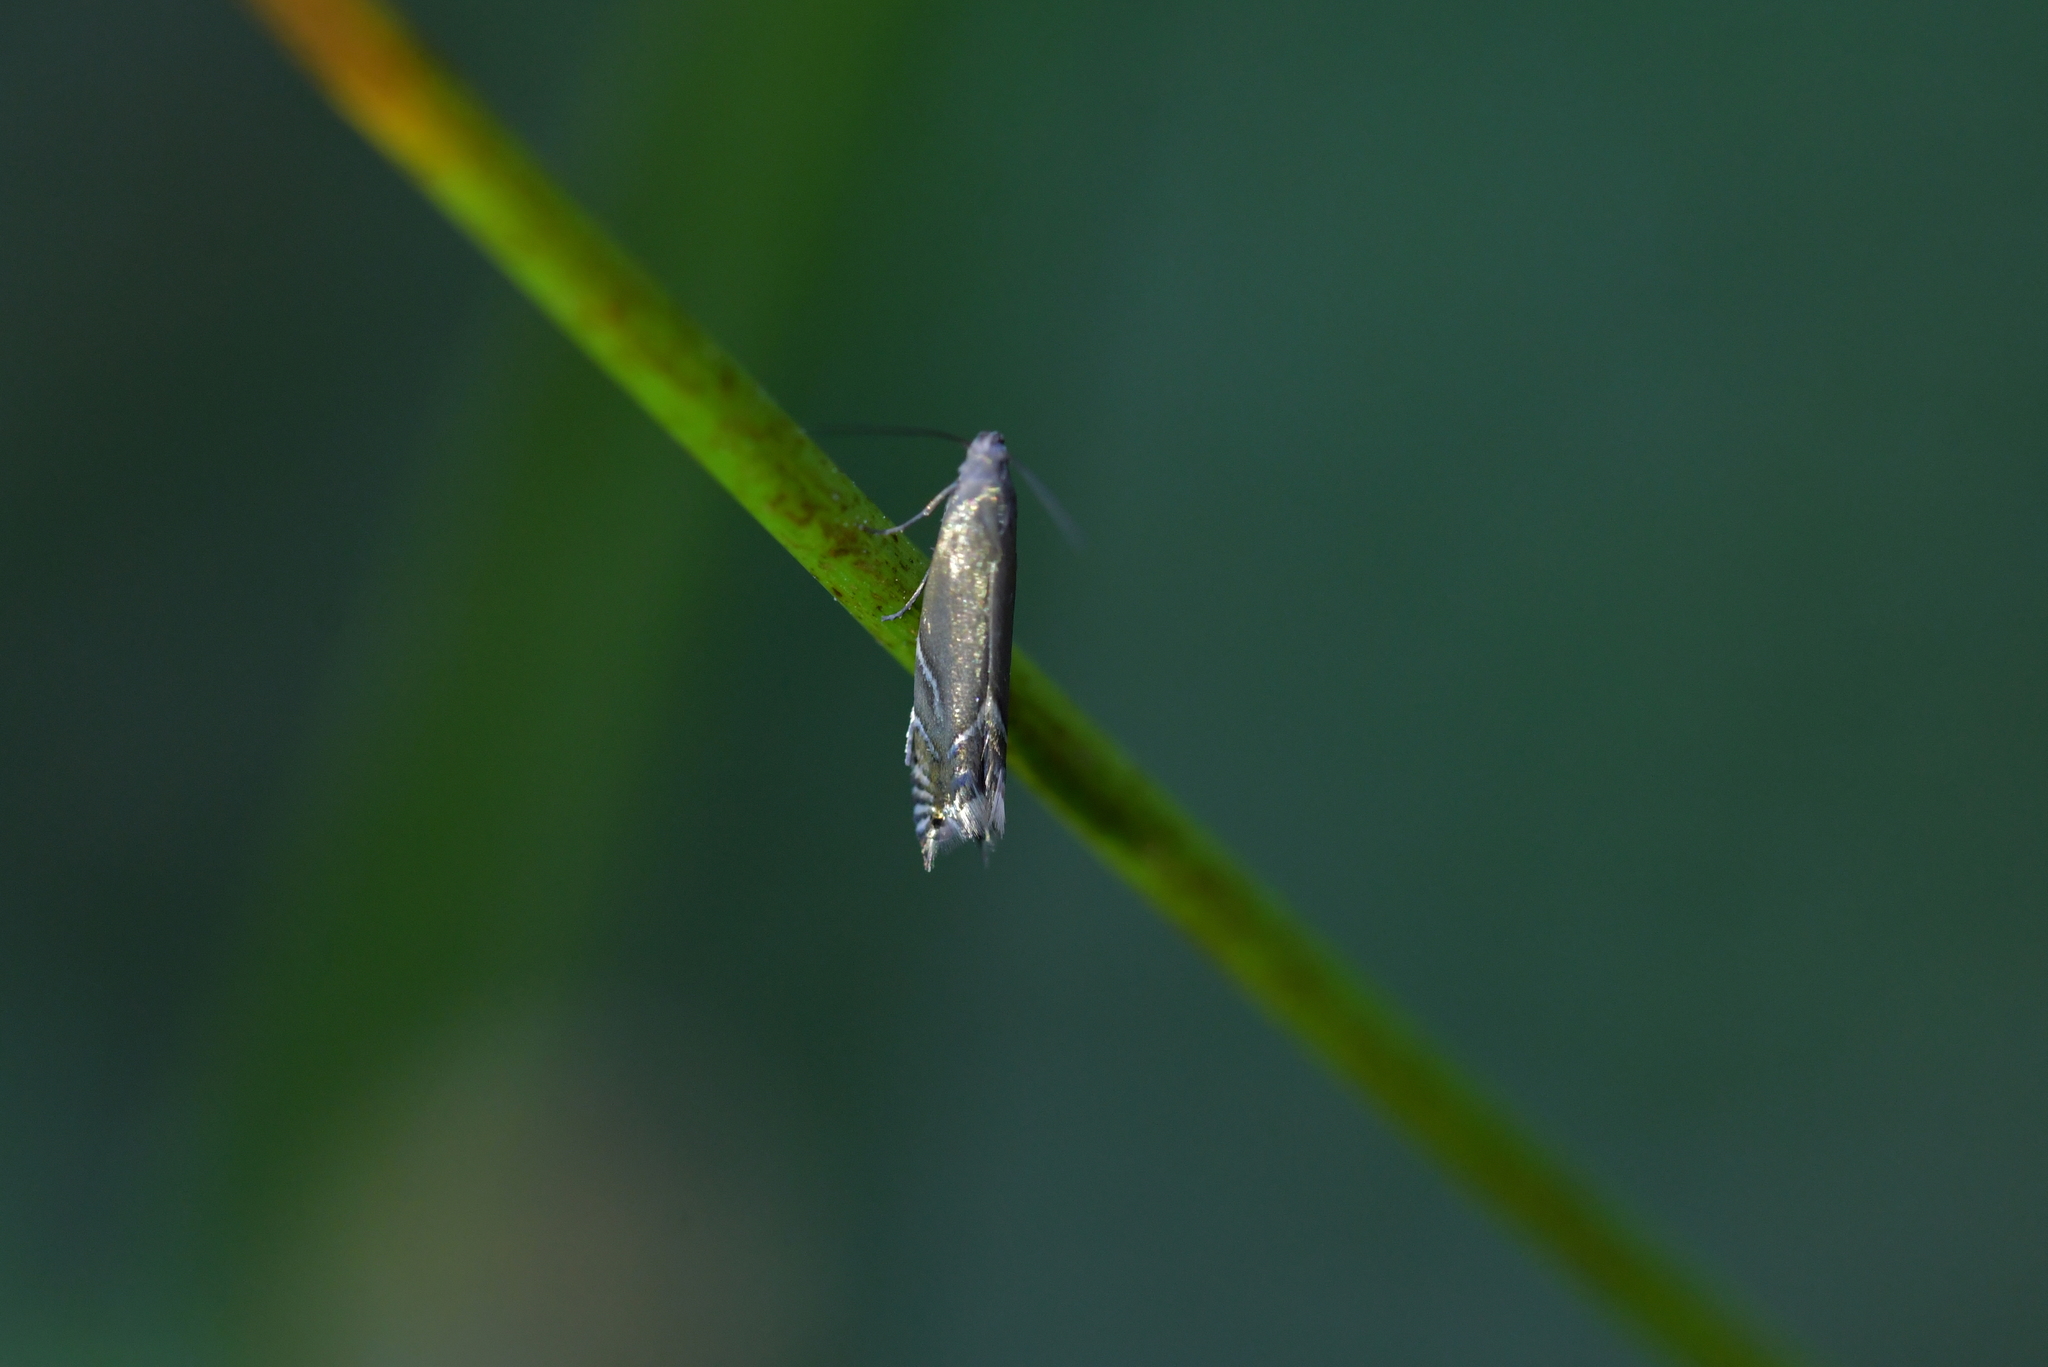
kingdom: Animalia
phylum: Arthropoda
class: Insecta
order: Lepidoptera
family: Glyphipterigidae
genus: Glyphipterix
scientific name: Glyphipterix iocheaera
